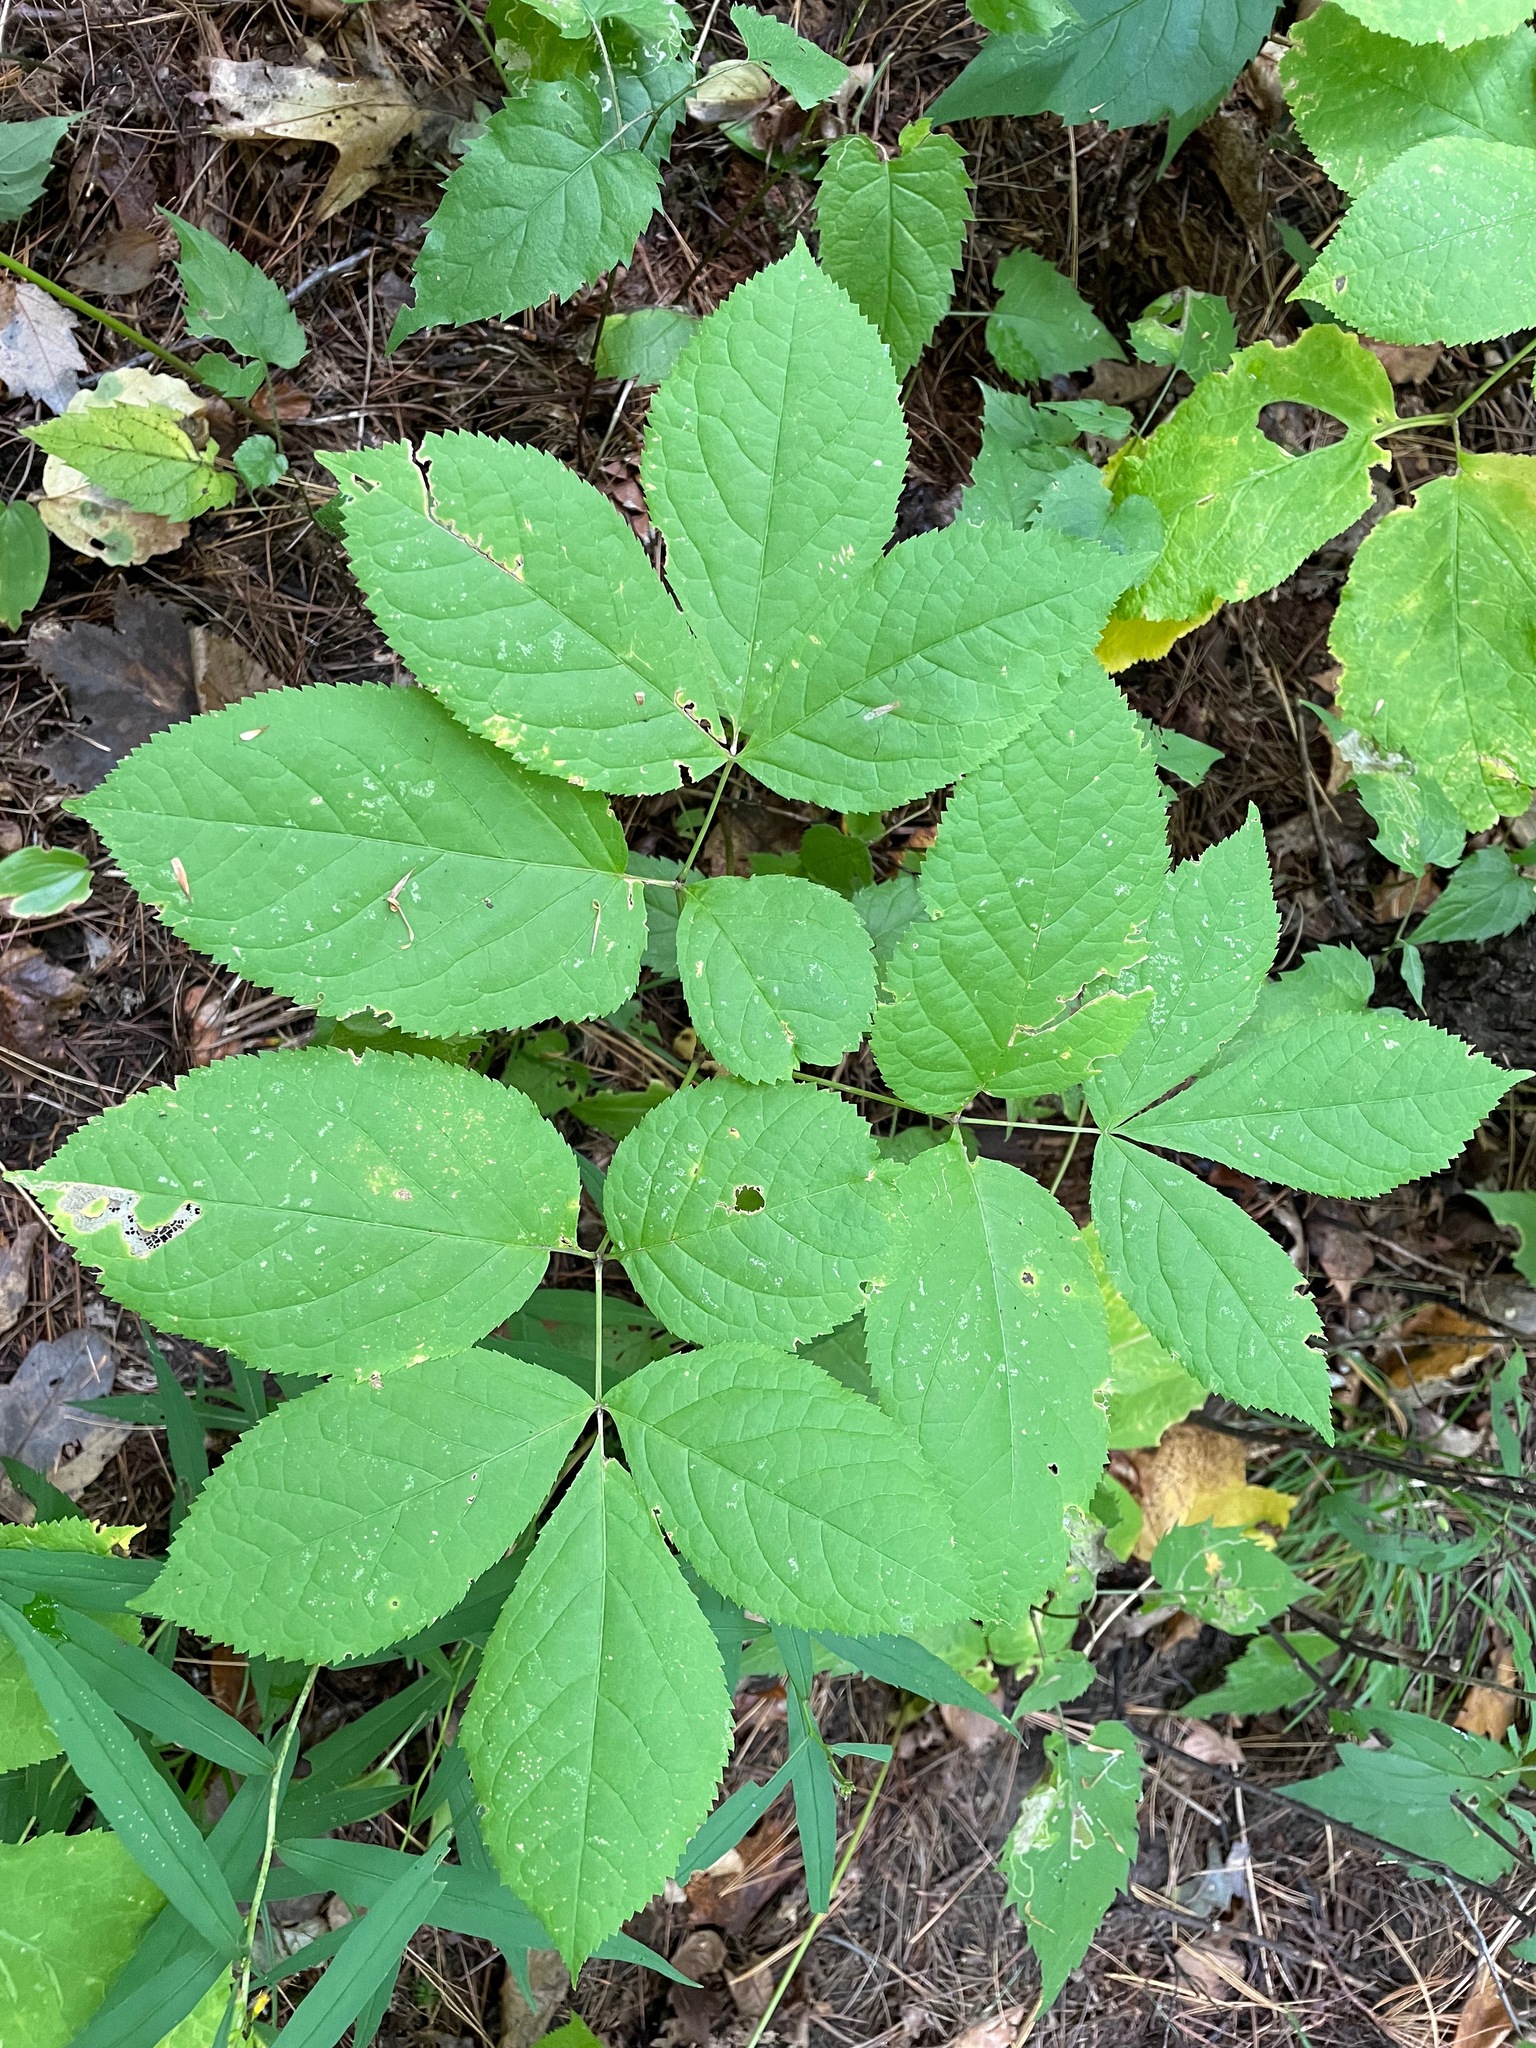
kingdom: Plantae
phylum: Tracheophyta
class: Magnoliopsida
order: Apiales
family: Araliaceae
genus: Aralia
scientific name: Aralia nudicaulis
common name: Wild sarsaparilla
